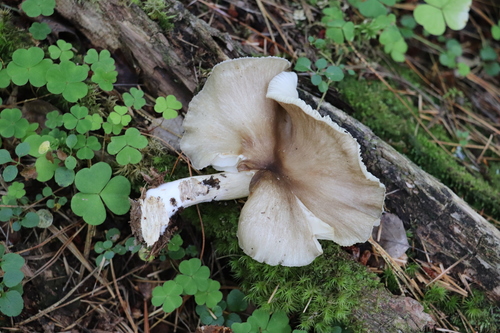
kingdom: Fungi
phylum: Basidiomycota
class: Agaricomycetes
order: Agaricales
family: Tricholomataceae
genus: Megacollybia
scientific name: Megacollybia
